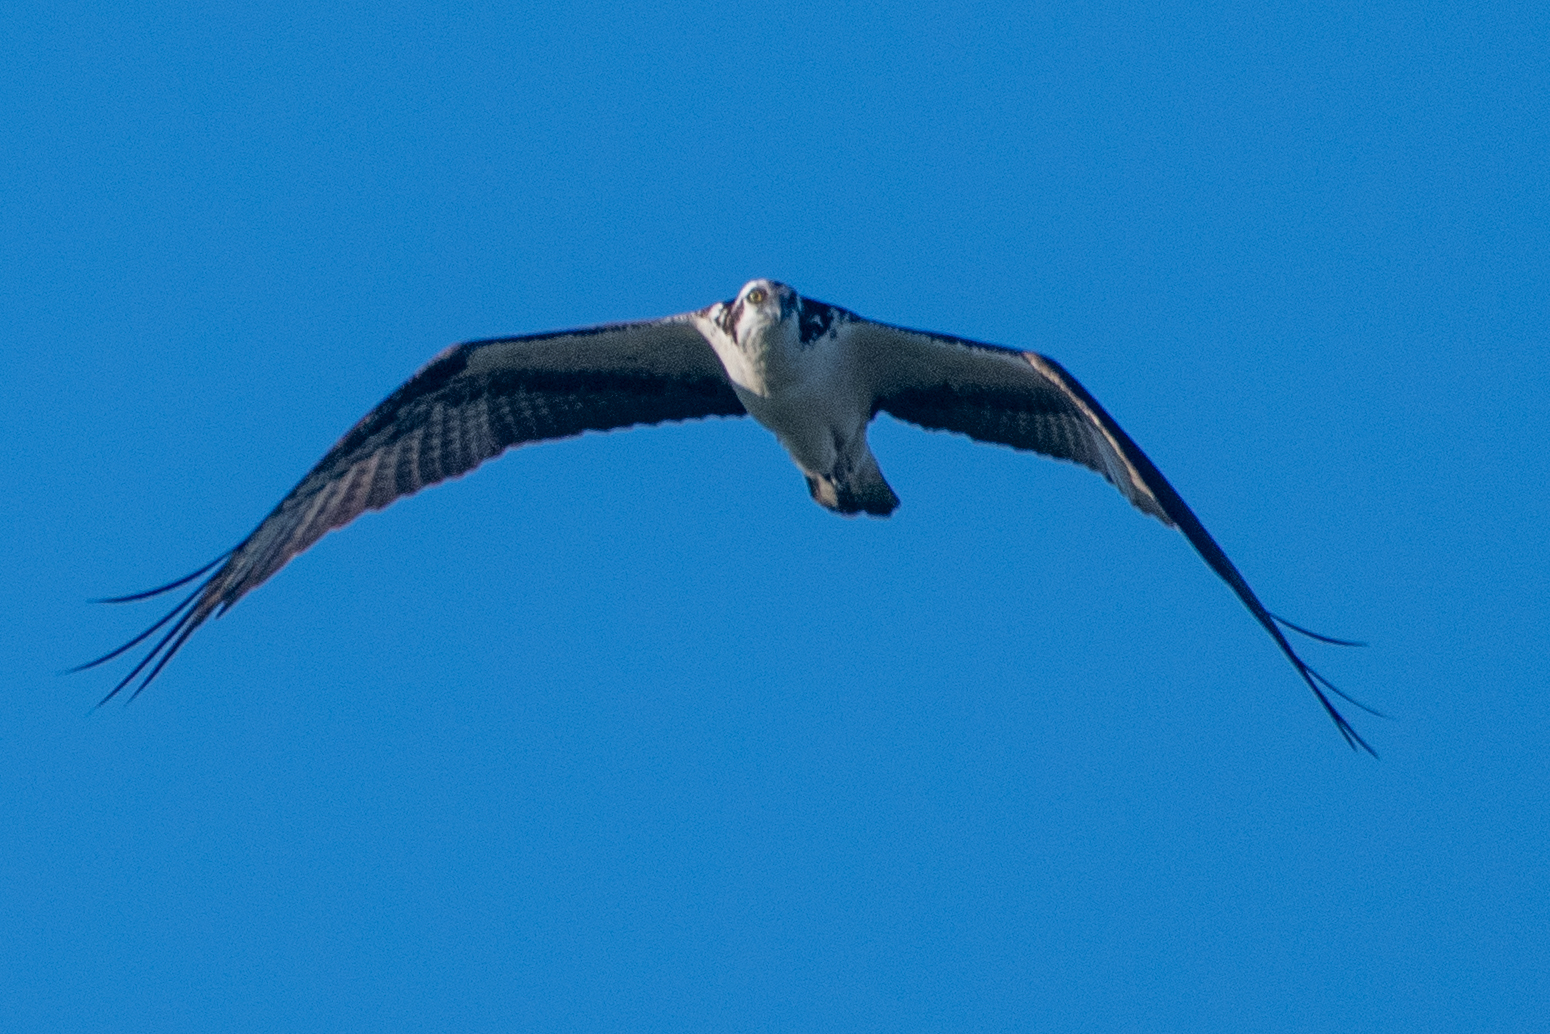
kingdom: Animalia
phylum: Chordata
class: Aves
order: Accipitriformes
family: Pandionidae
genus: Pandion
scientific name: Pandion haliaetus
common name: Osprey
